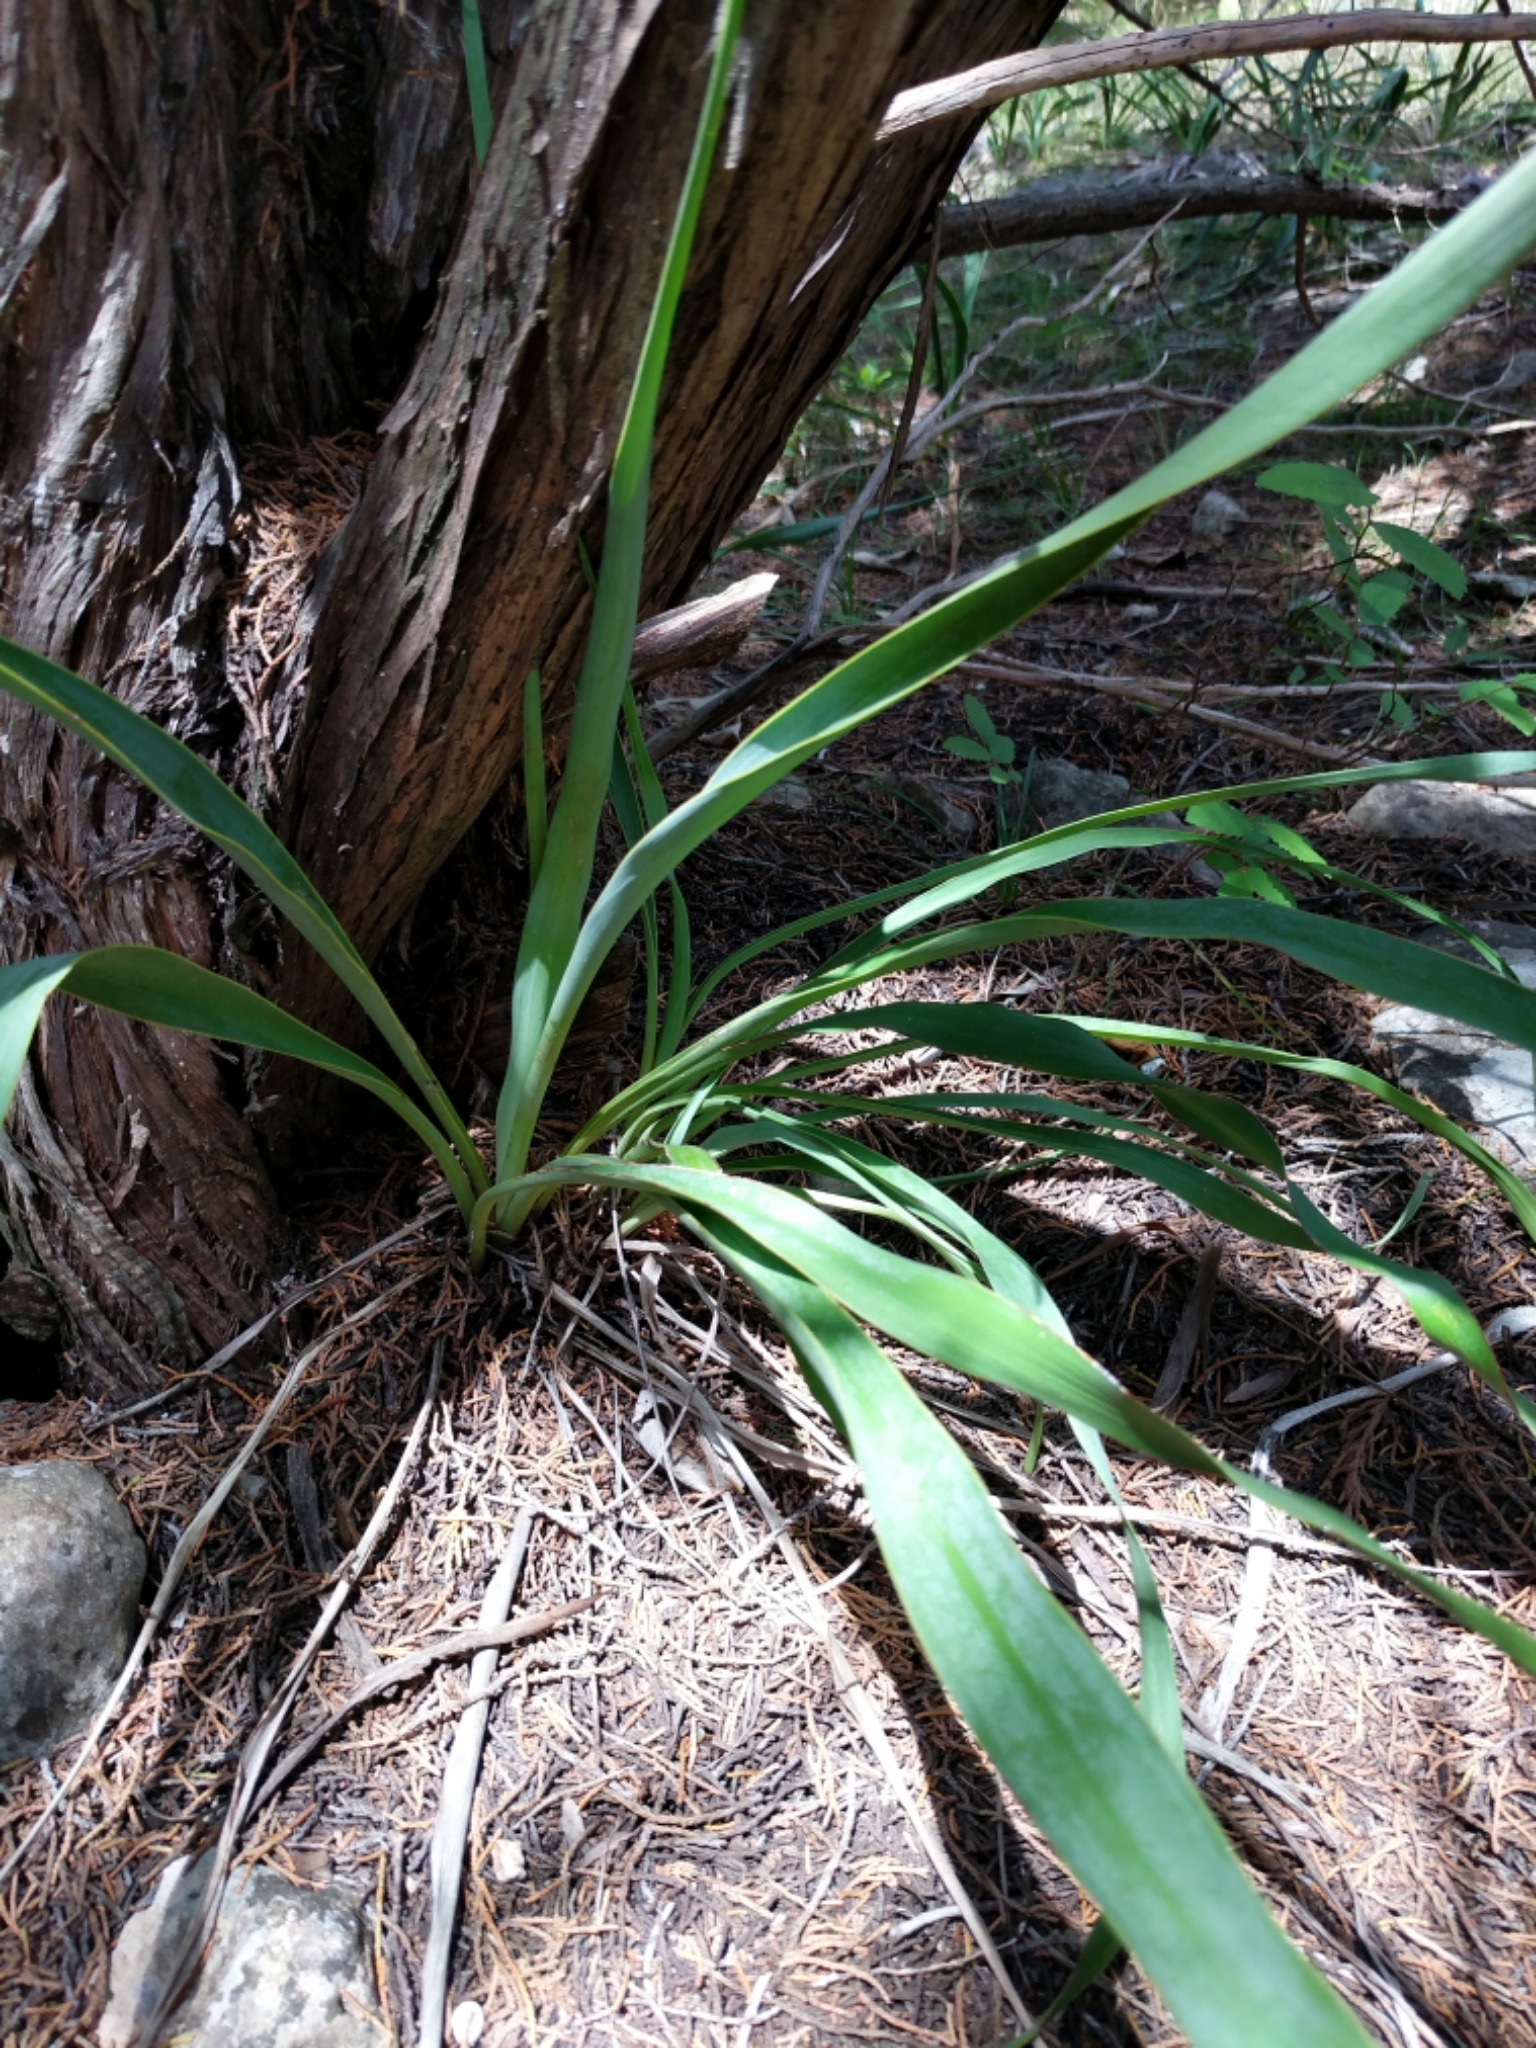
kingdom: Plantae
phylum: Tracheophyta
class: Liliopsida
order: Asparagales
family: Asparagaceae
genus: Yucca
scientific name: Yucca rupicola
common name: Twisted-leaf spanish-dagger
